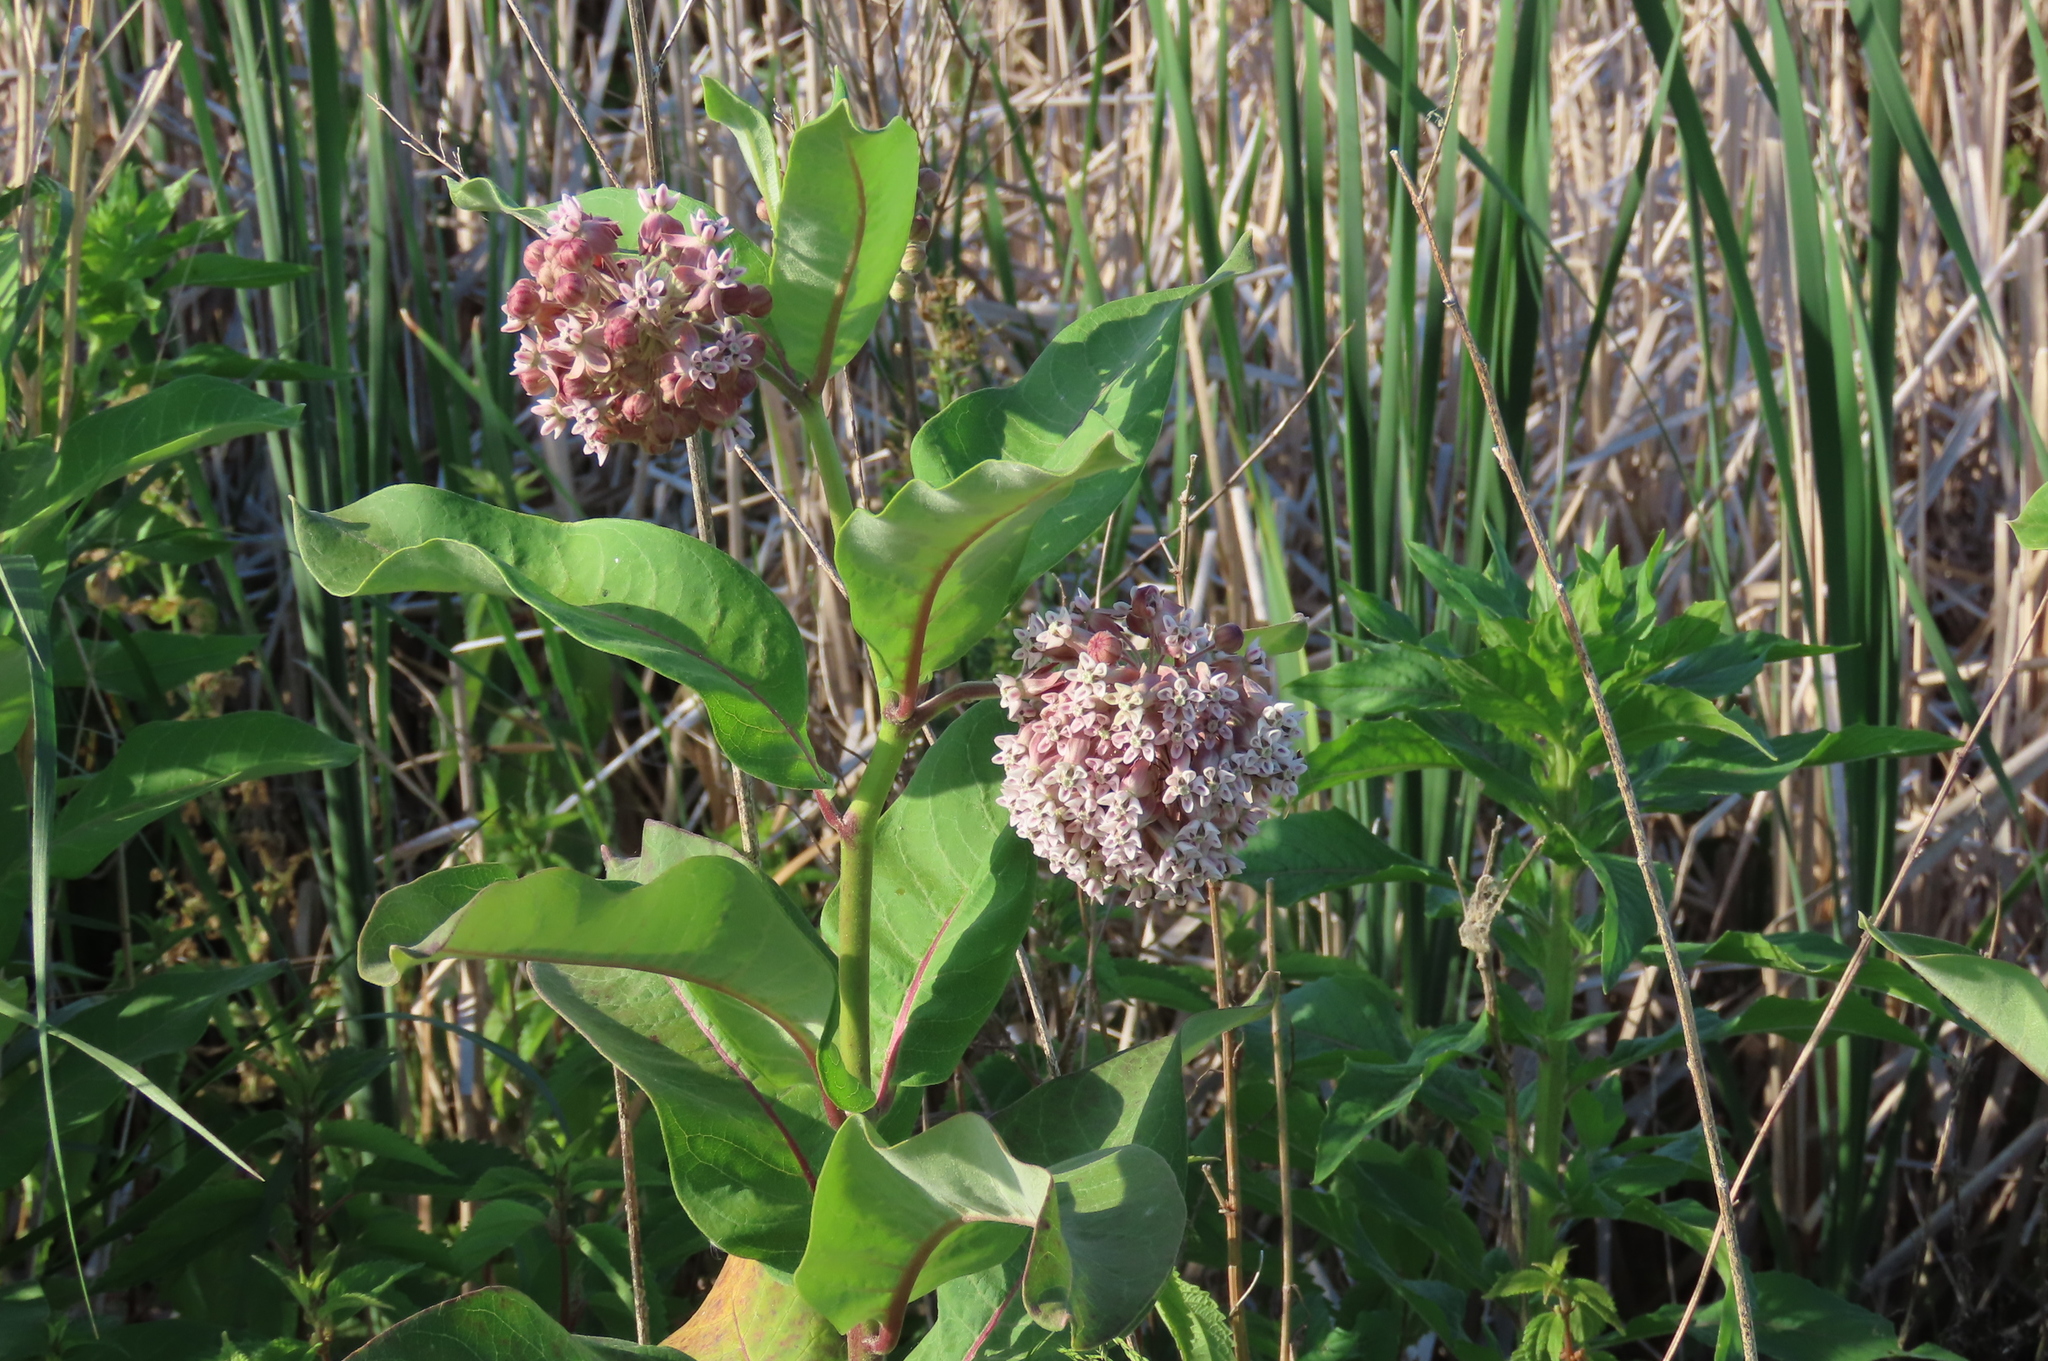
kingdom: Plantae
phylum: Tracheophyta
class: Magnoliopsida
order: Gentianales
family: Apocynaceae
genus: Asclepias
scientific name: Asclepias syriaca
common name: Common milkweed
